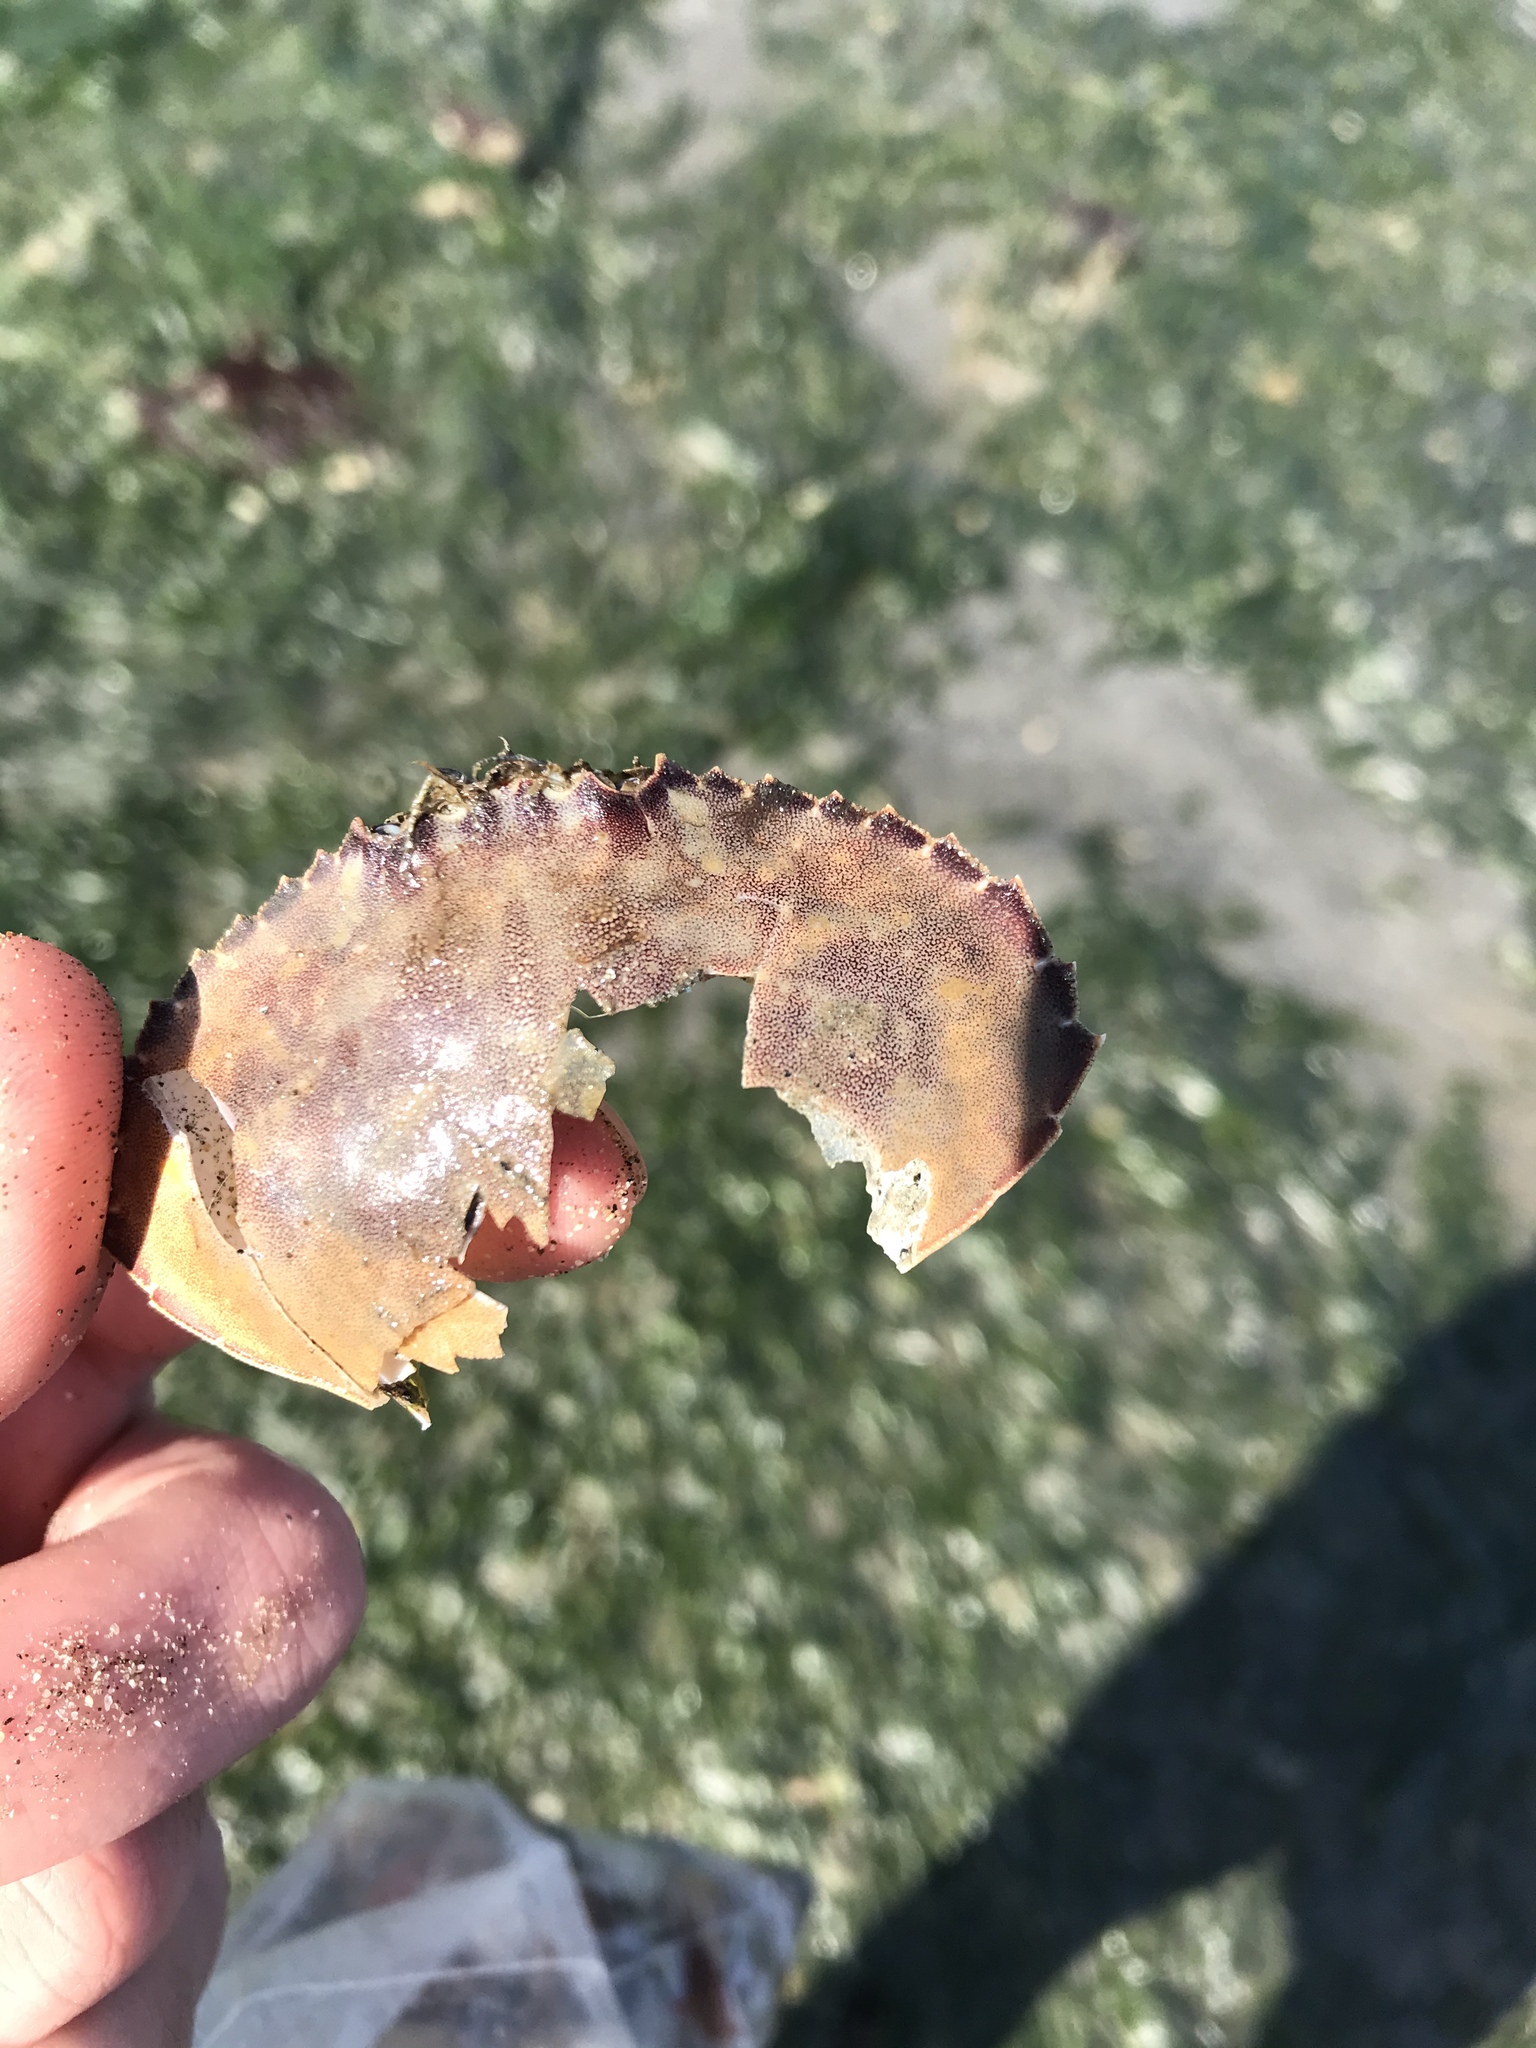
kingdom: Animalia
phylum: Arthropoda
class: Malacostraca
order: Decapoda
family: Cancridae
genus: Metacarcinus
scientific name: Metacarcinus gracilis
